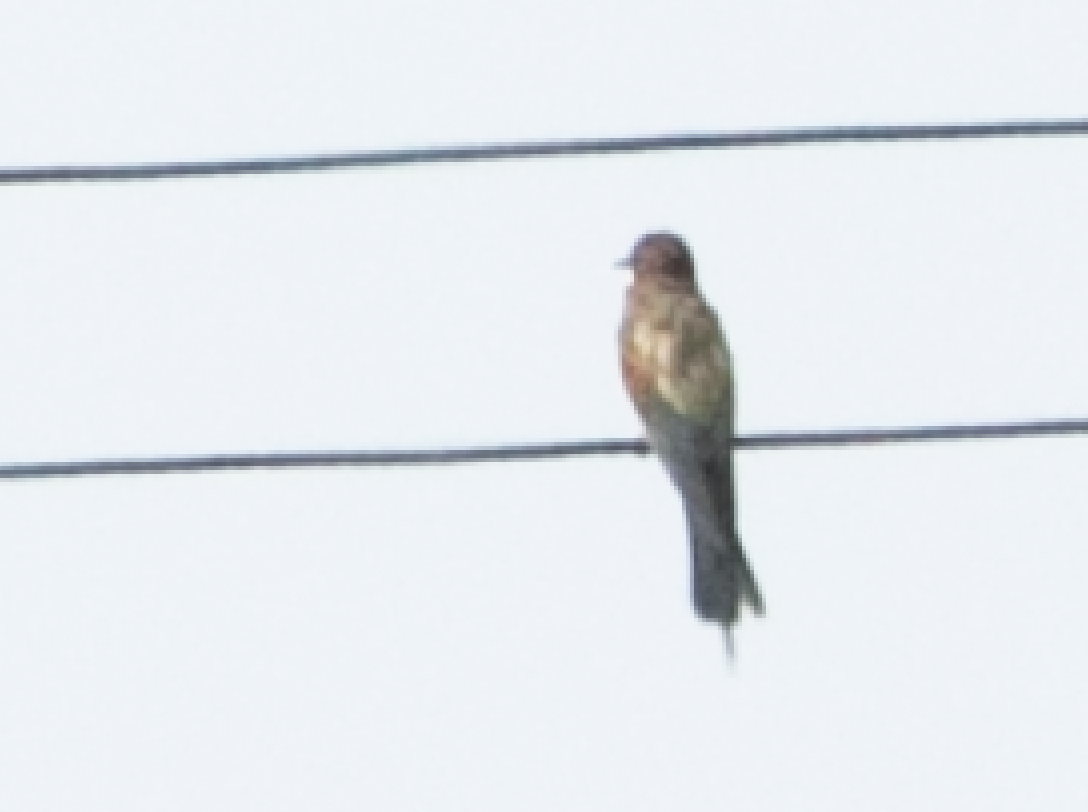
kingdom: Animalia
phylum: Chordata
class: Aves
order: Coraciiformes
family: Meropidae
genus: Merops
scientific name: Merops apiaster
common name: European bee-eater
